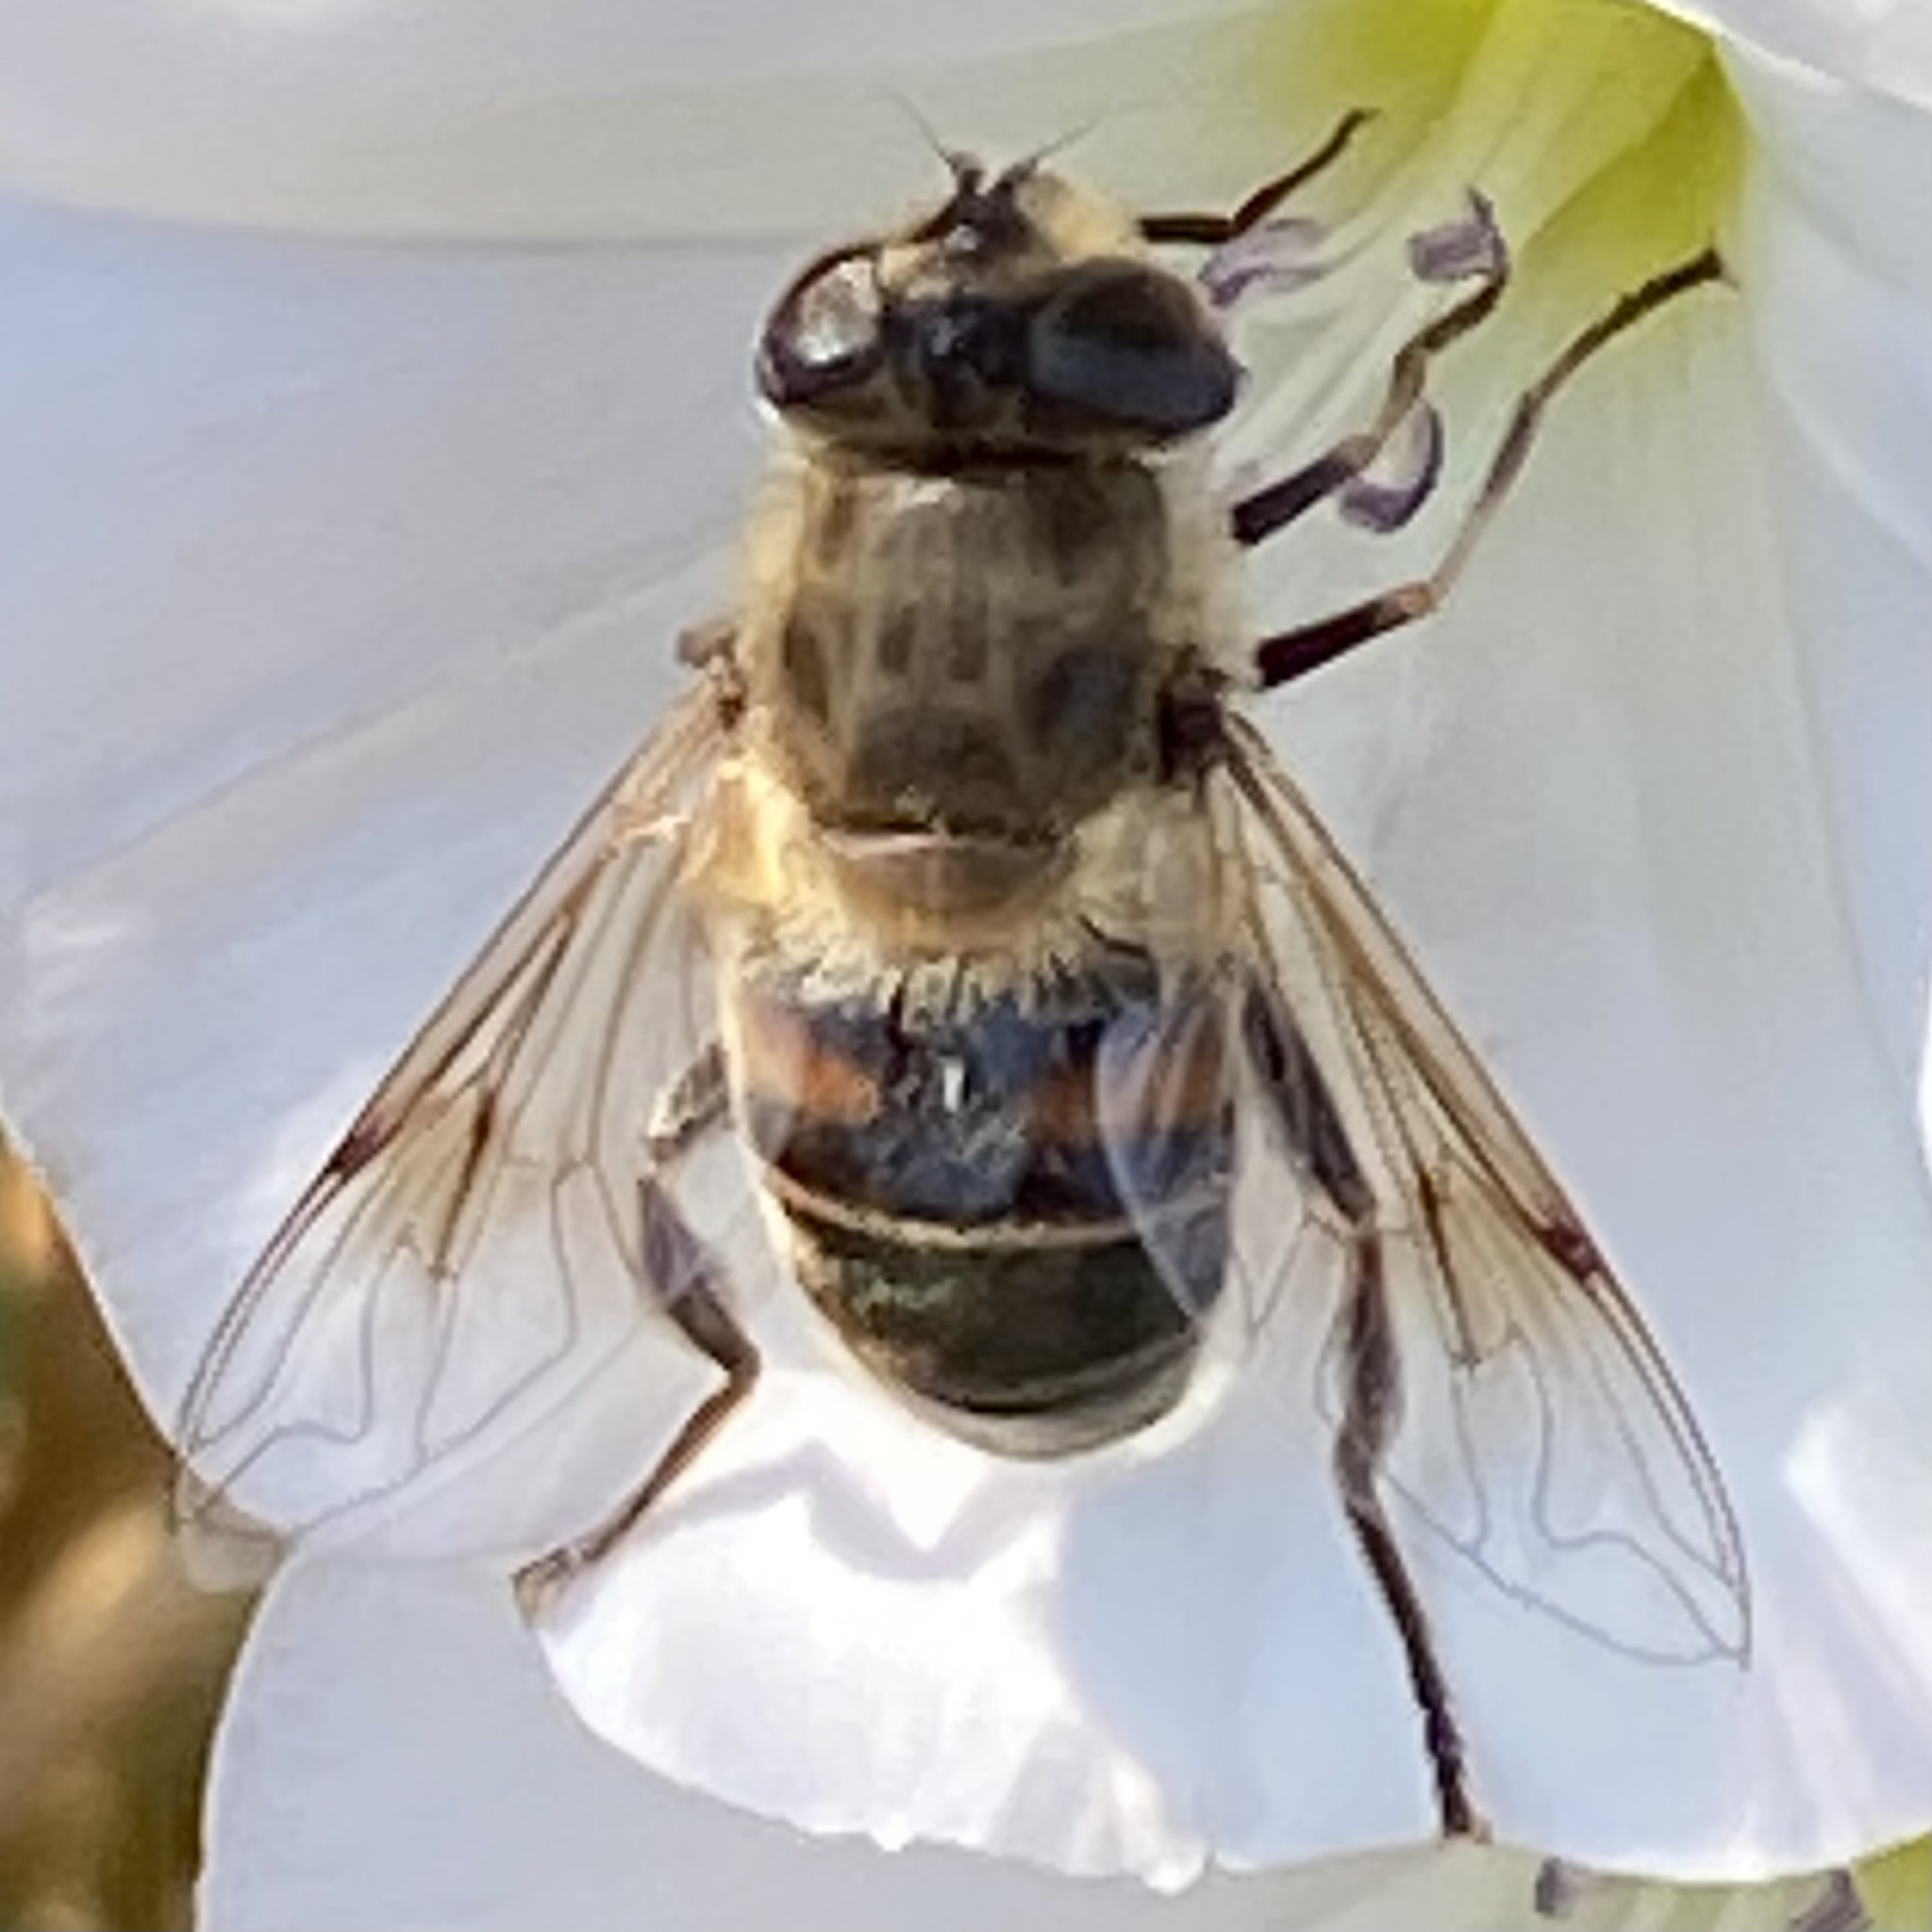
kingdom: Animalia
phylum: Arthropoda
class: Insecta
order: Diptera
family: Syrphidae
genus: Eristalis
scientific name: Eristalis tenax
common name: Drone fly
